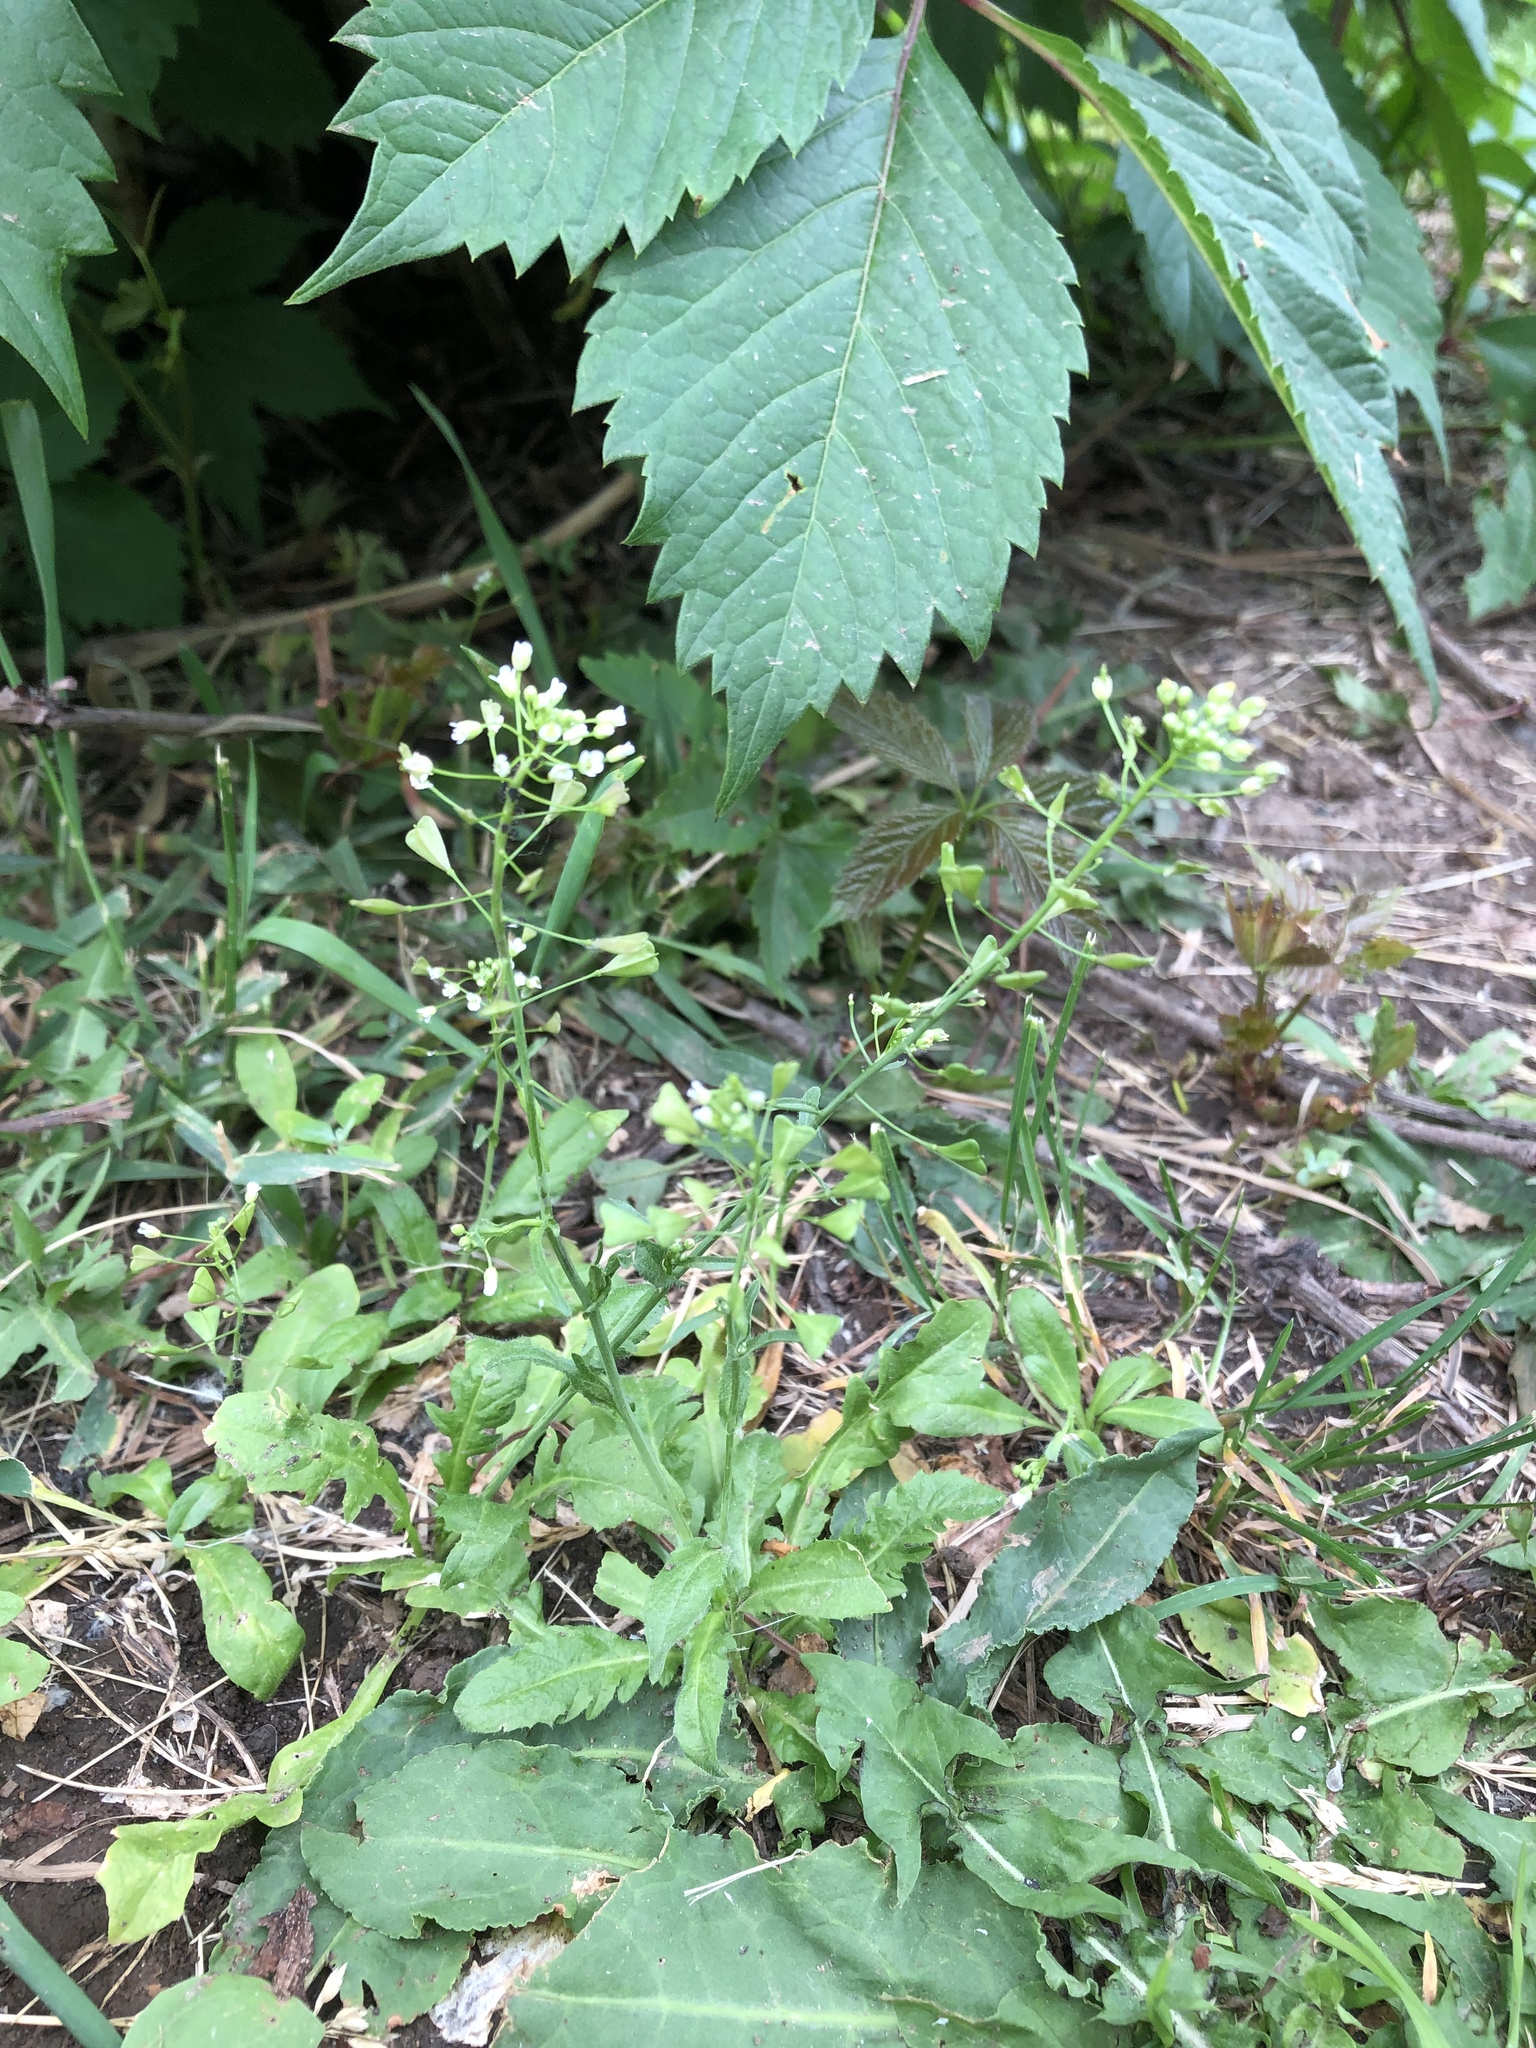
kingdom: Plantae
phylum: Tracheophyta
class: Magnoliopsida
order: Brassicales
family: Brassicaceae
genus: Capsella
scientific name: Capsella bursa-pastoris
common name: Shepherd's purse
